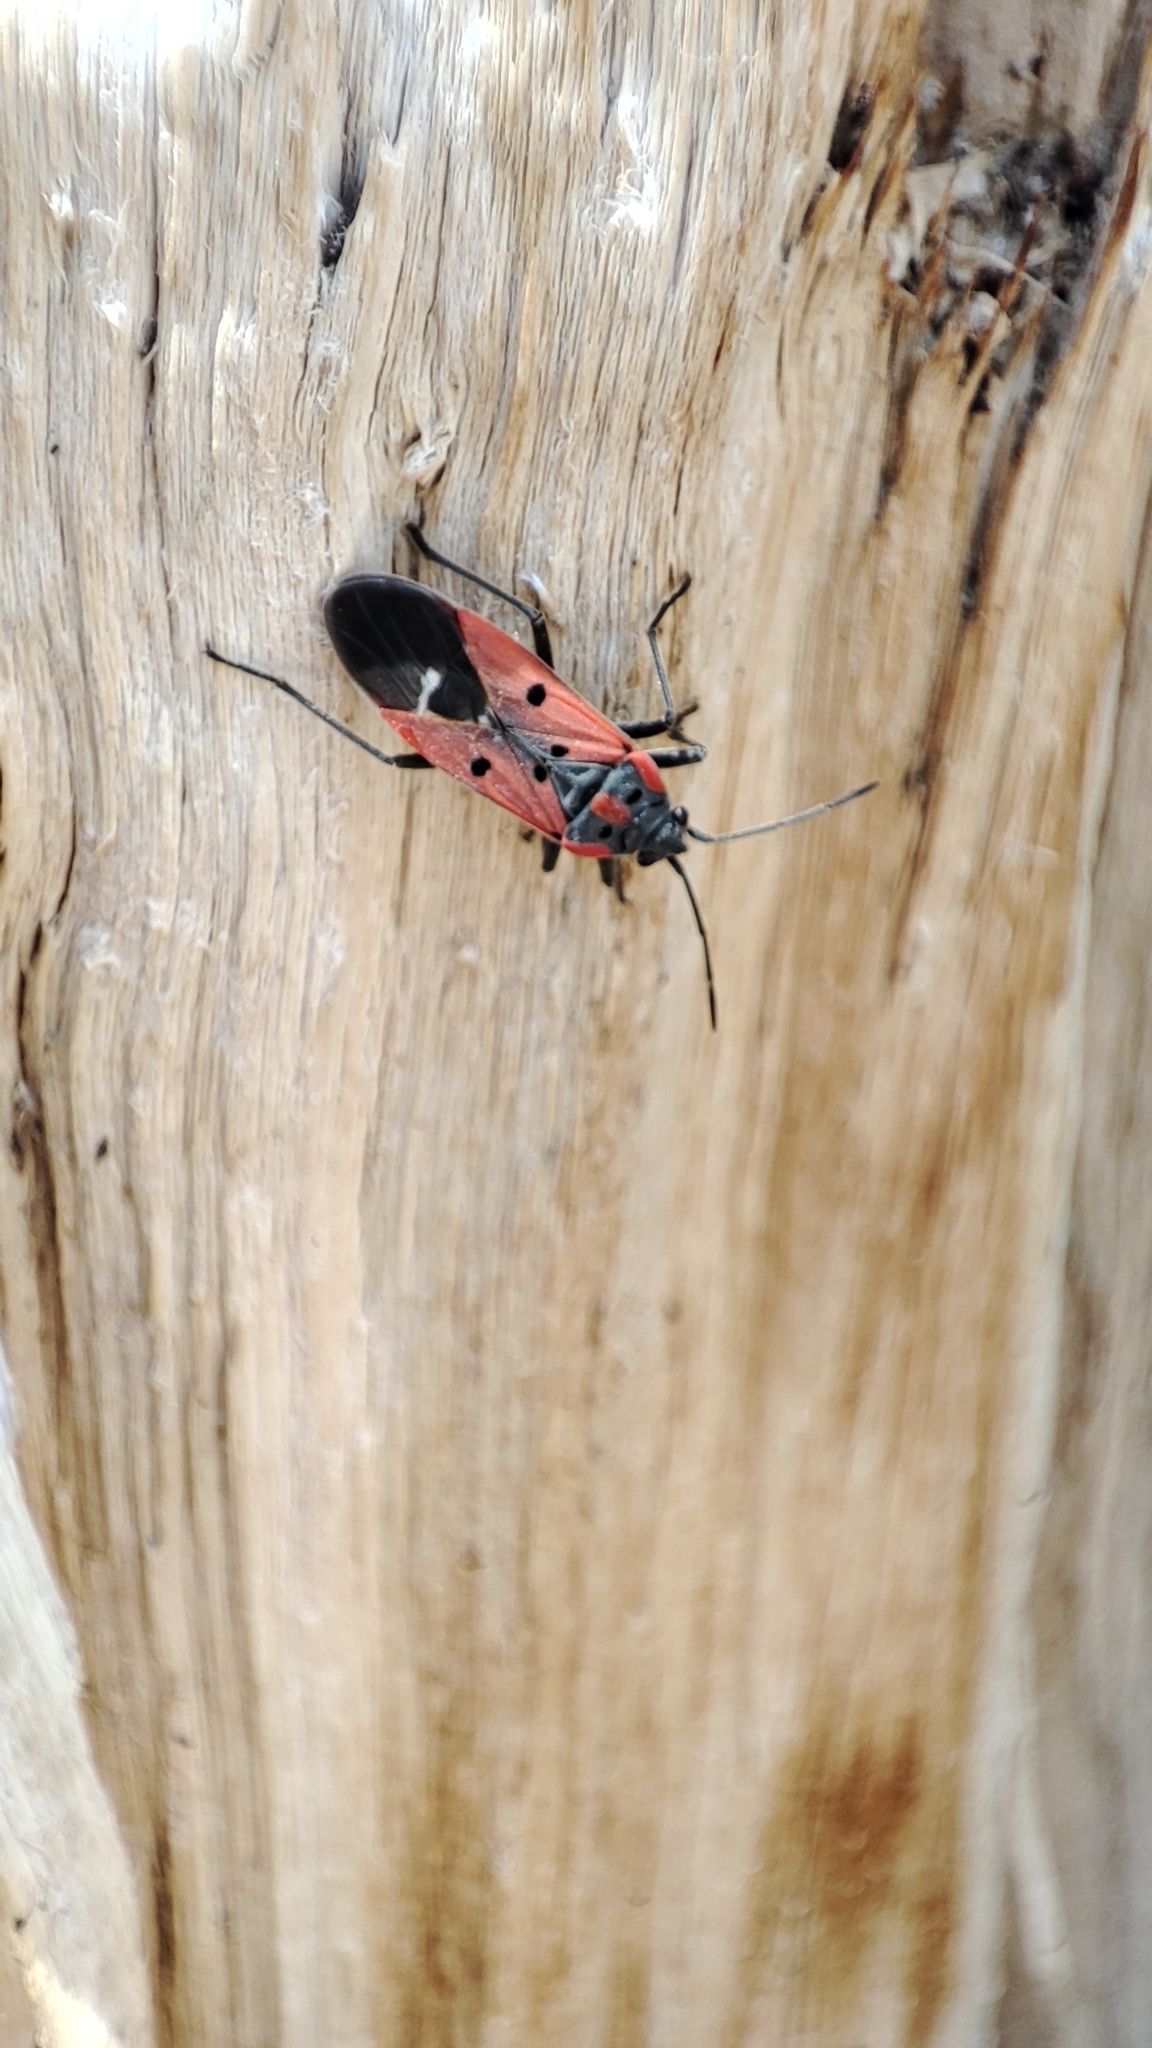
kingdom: Animalia
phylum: Arthropoda
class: Insecta
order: Hemiptera
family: Lygaeidae
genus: Lygaeus
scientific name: Lygaeus creticus
